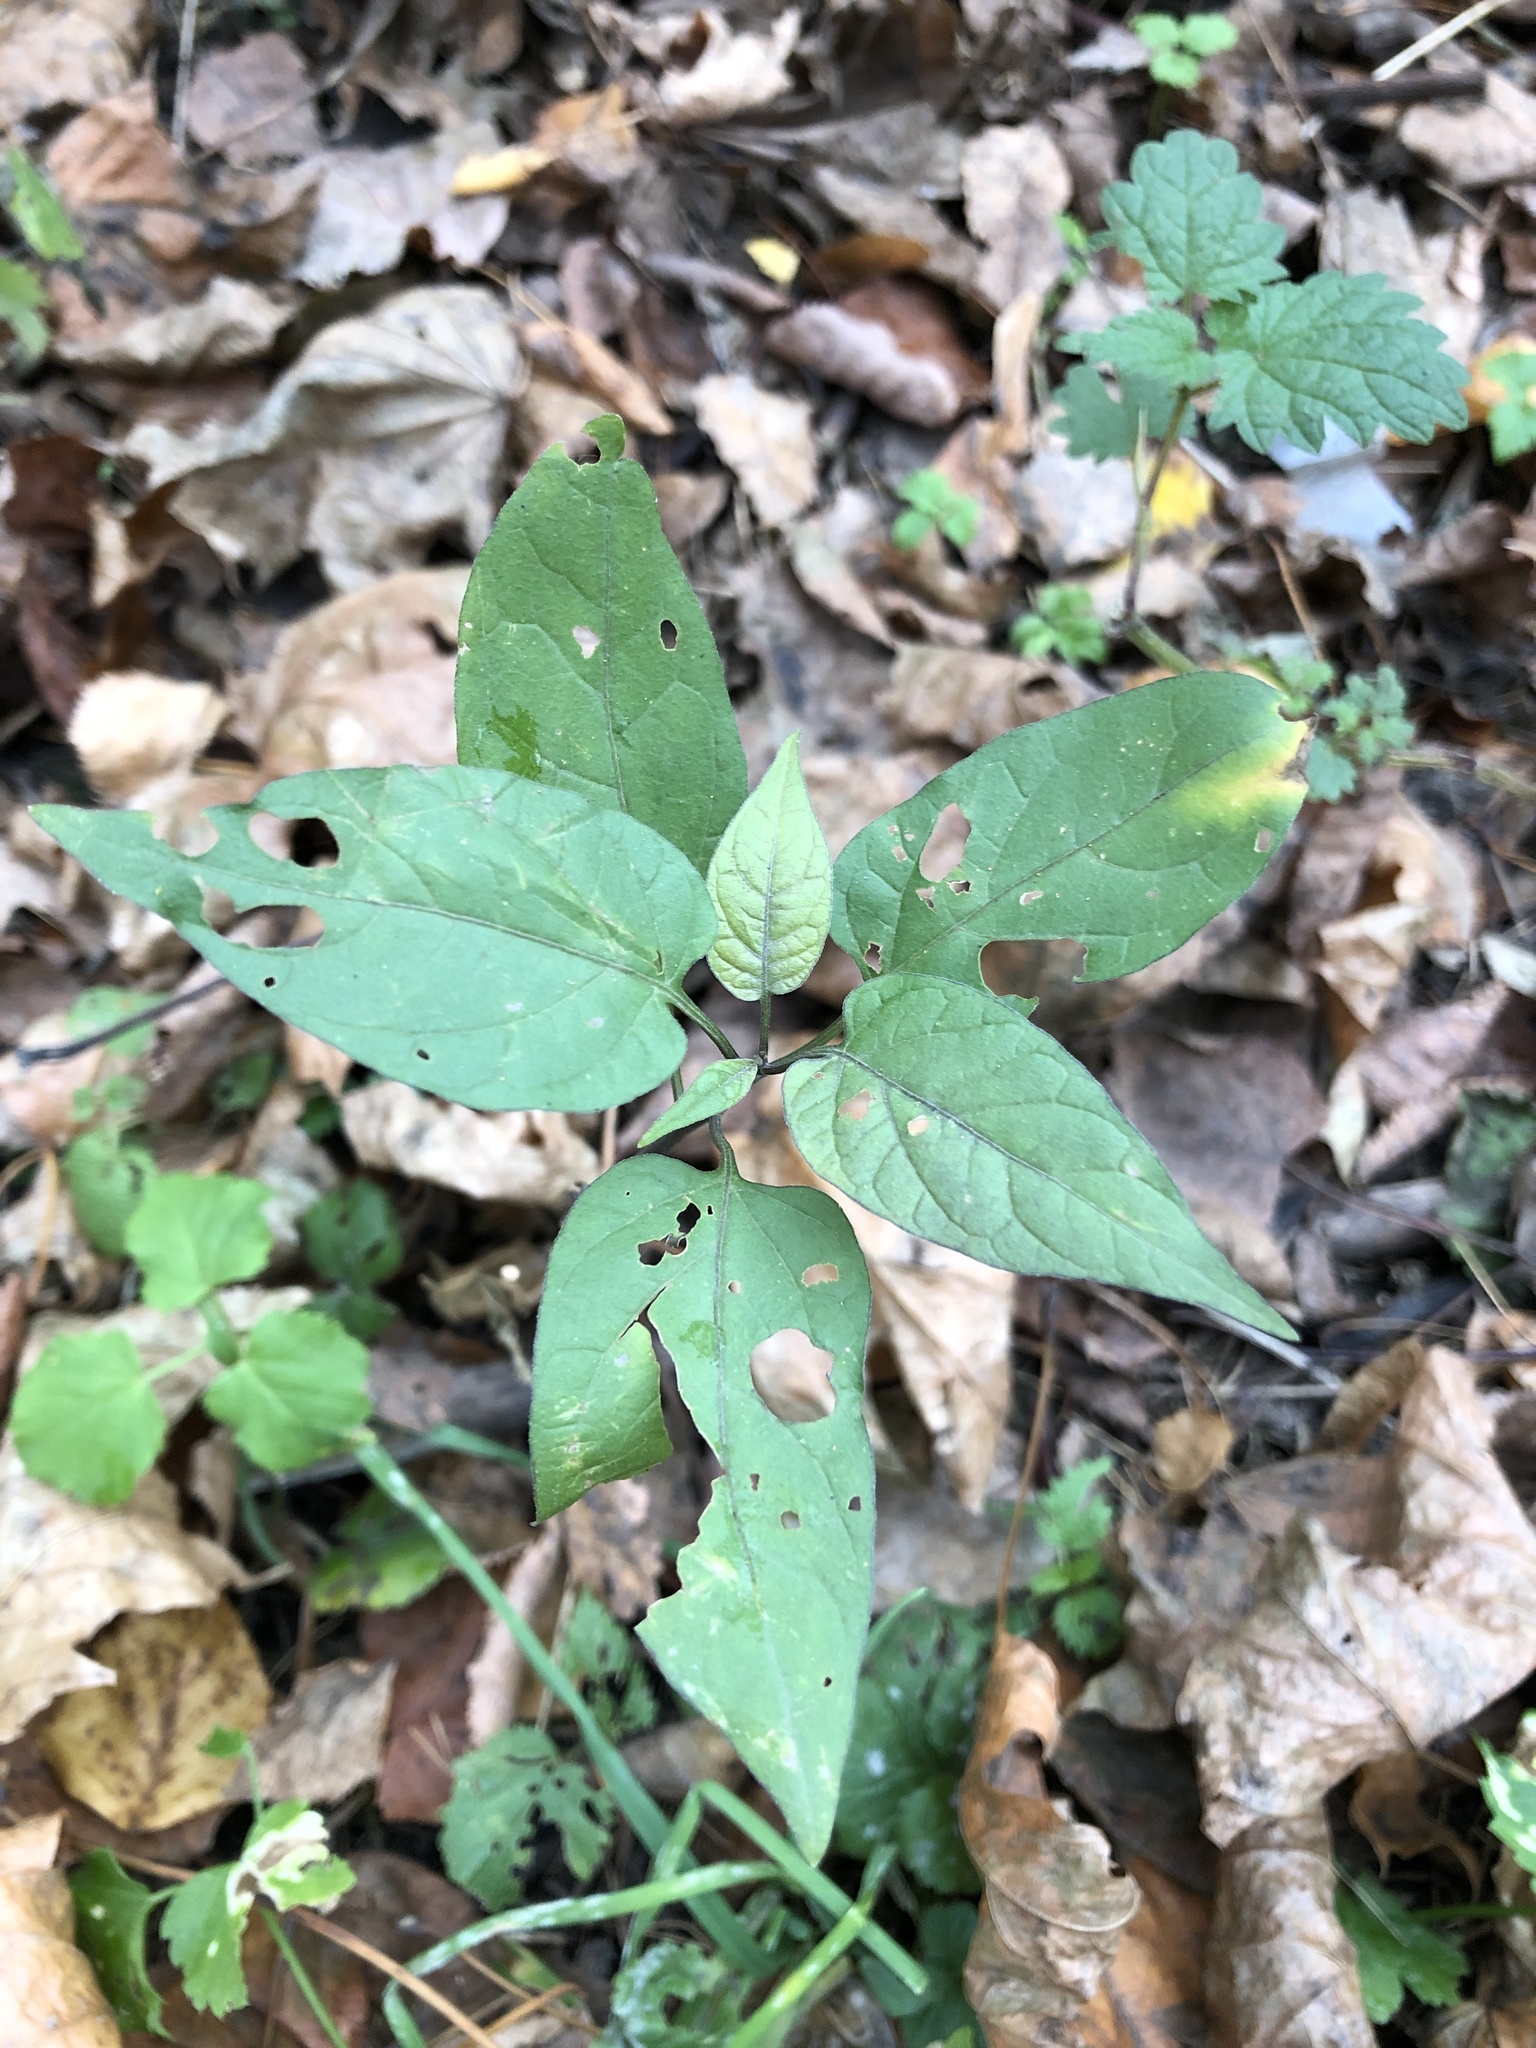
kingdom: Plantae
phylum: Tracheophyta
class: Magnoliopsida
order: Solanales
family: Solanaceae
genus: Solanum
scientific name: Solanum dulcamara
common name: Climbing nightshade
